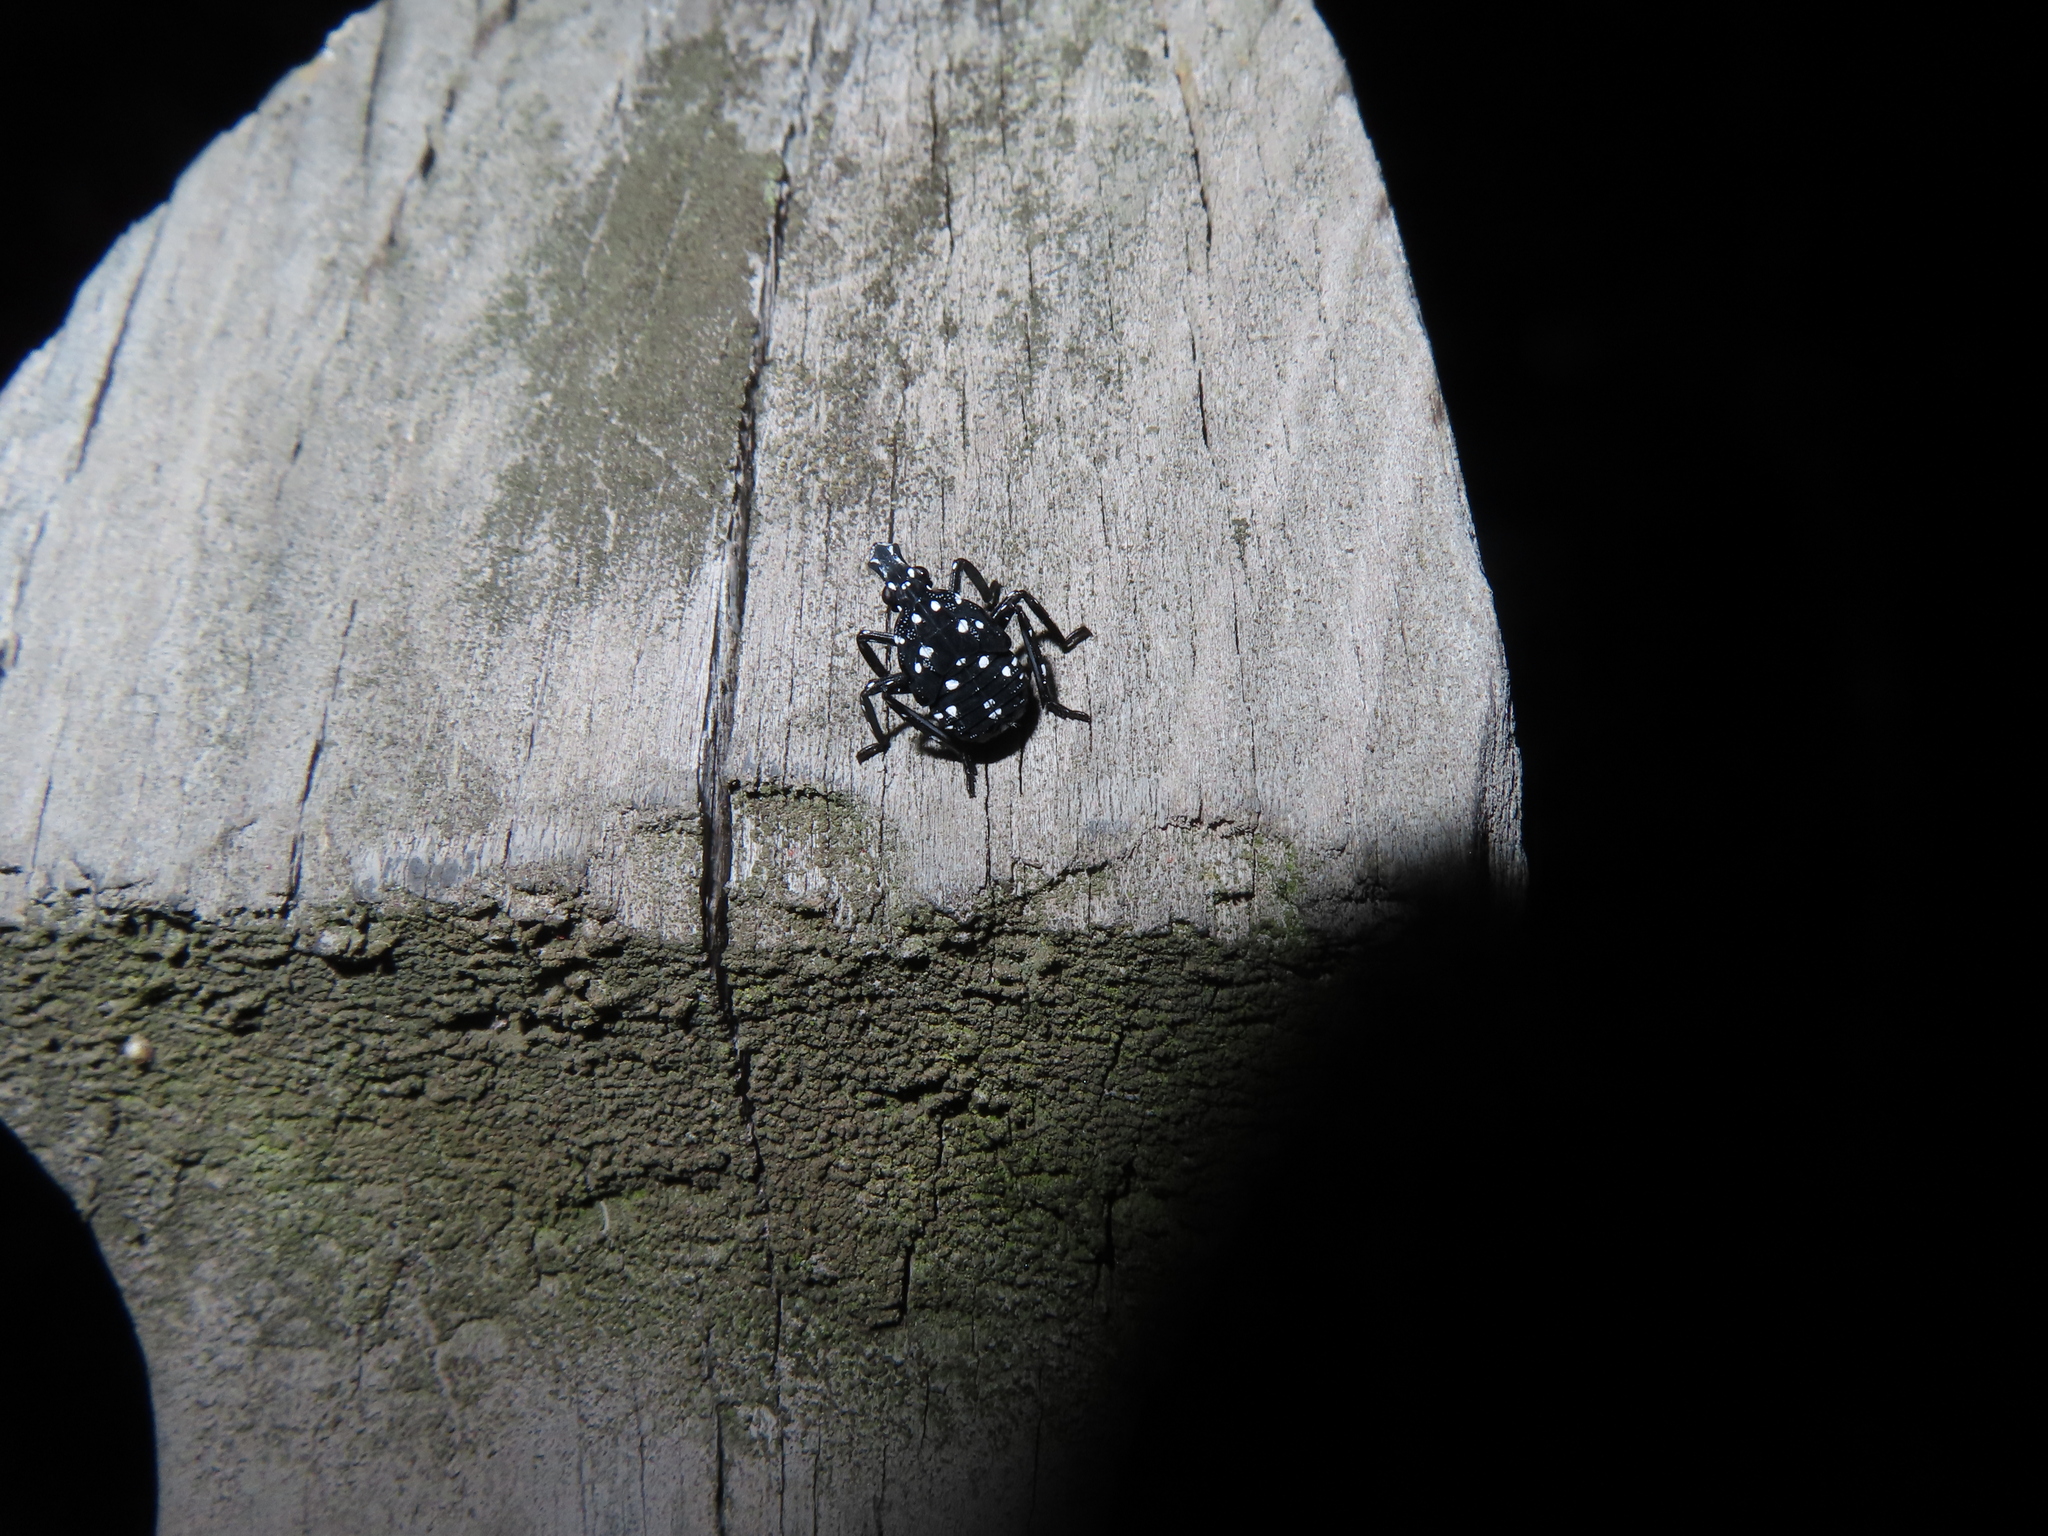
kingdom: Animalia
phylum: Arthropoda
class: Insecta
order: Hemiptera
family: Fulgoridae
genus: Lycorma
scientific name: Lycorma delicatula
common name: Spotted lanternfly
